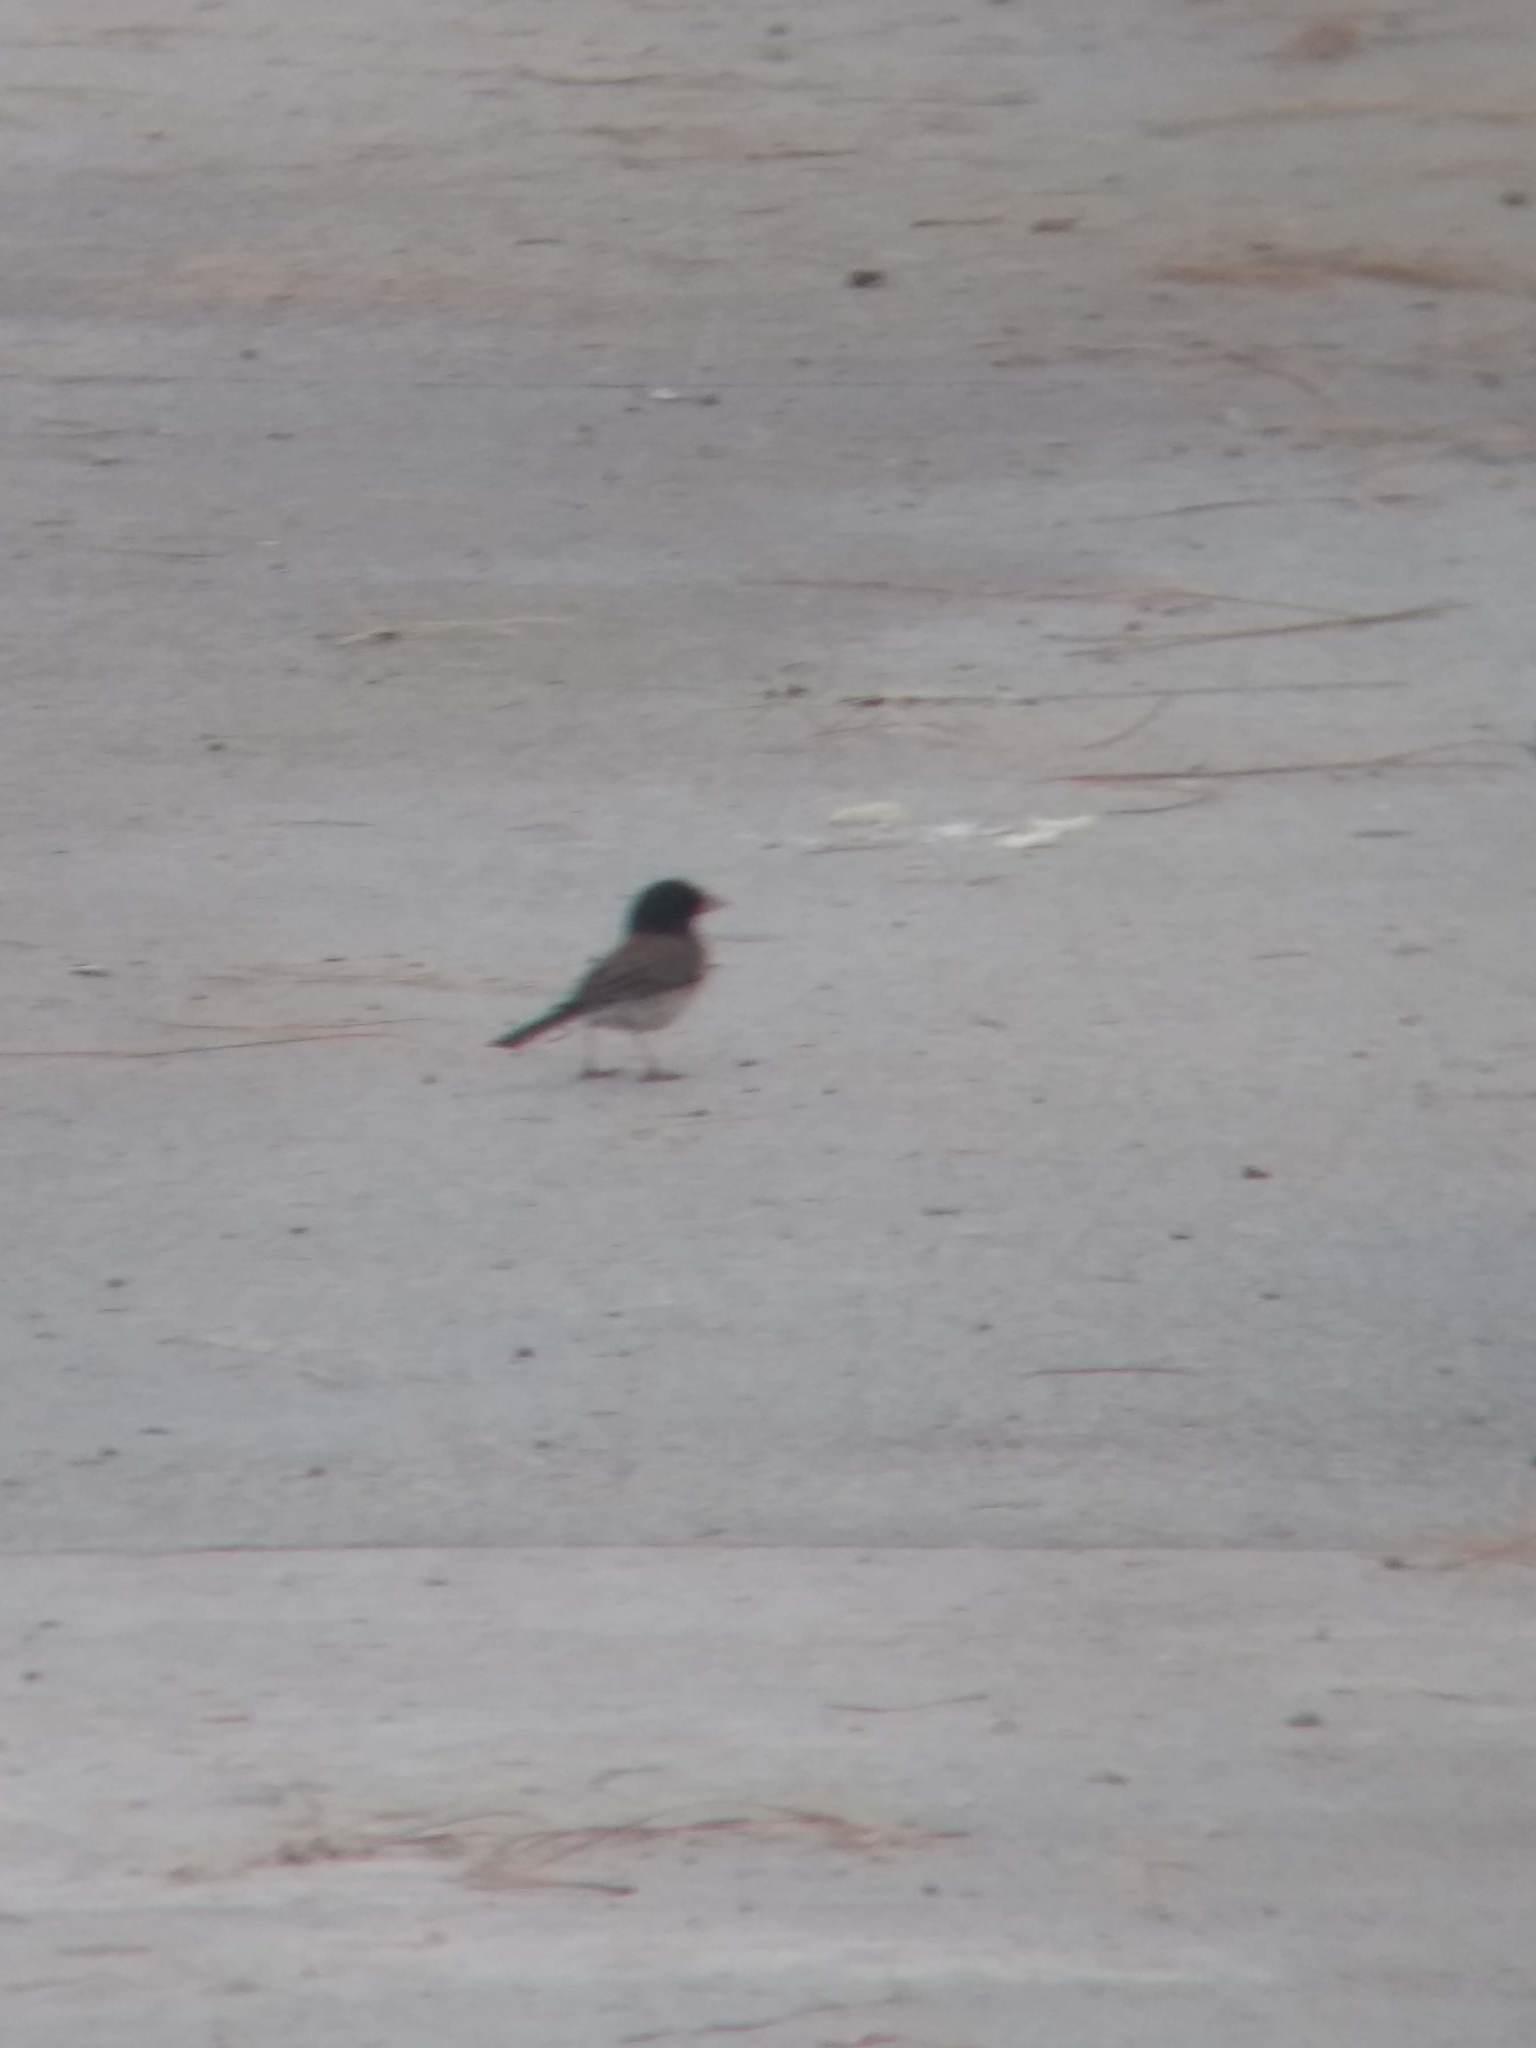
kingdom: Animalia
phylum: Chordata
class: Aves
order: Passeriformes
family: Passerellidae
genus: Junco
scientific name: Junco hyemalis
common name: Dark-eyed junco
